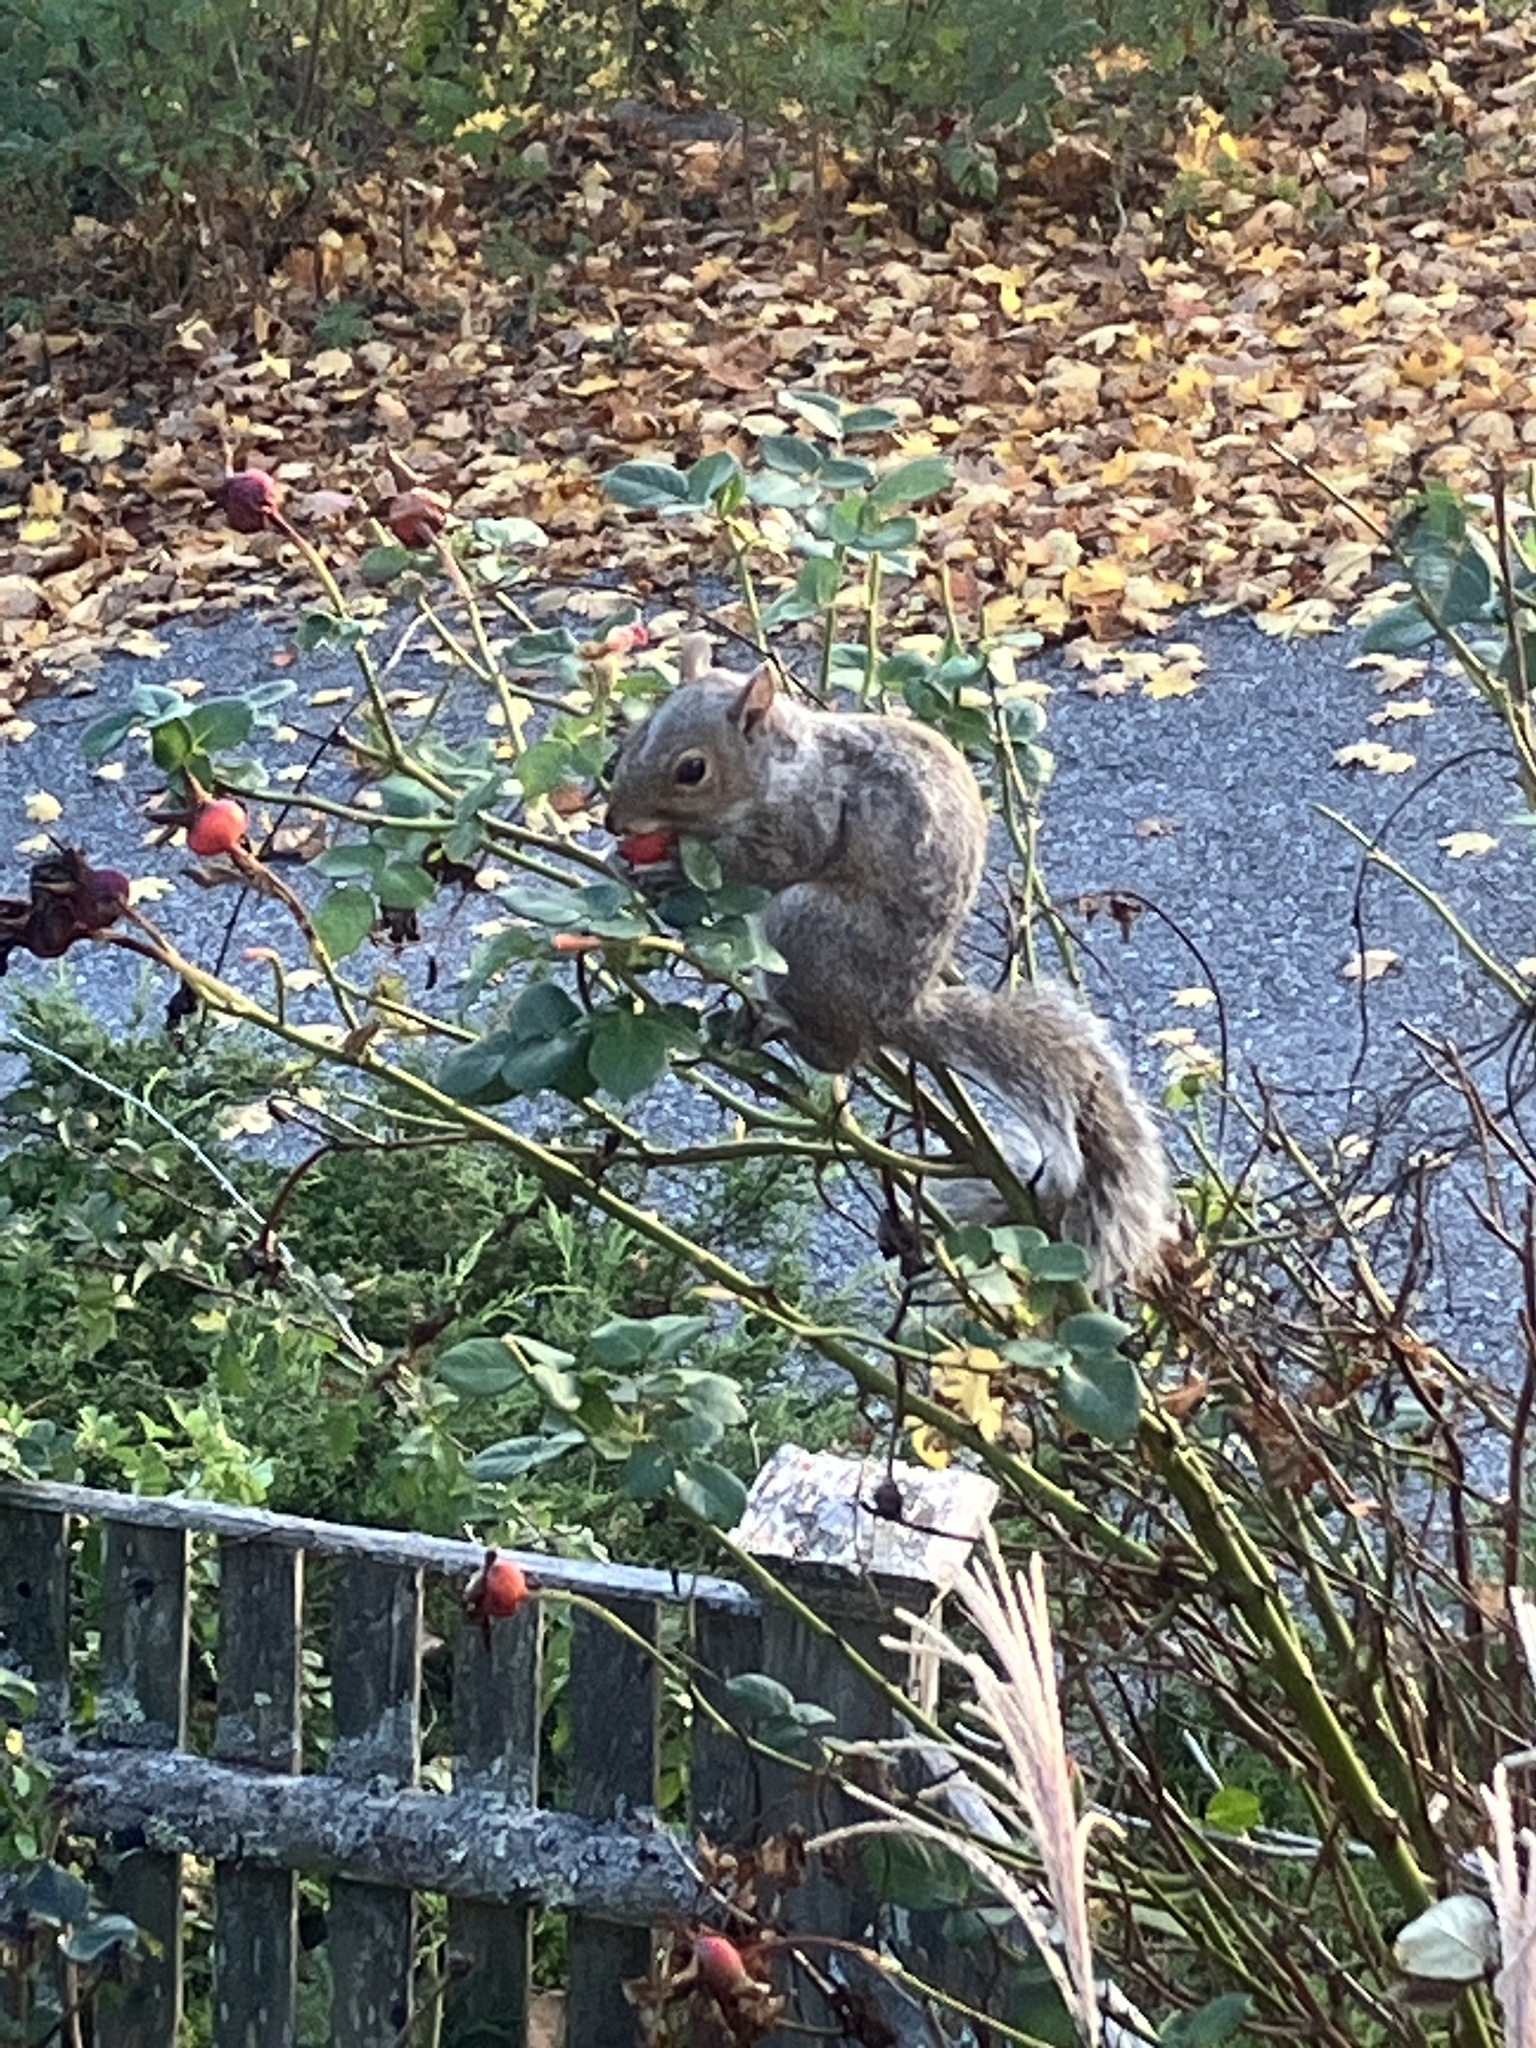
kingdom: Animalia
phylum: Chordata
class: Mammalia
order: Rodentia
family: Sciuridae
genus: Sciurus
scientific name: Sciurus carolinensis
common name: Eastern gray squirrel
